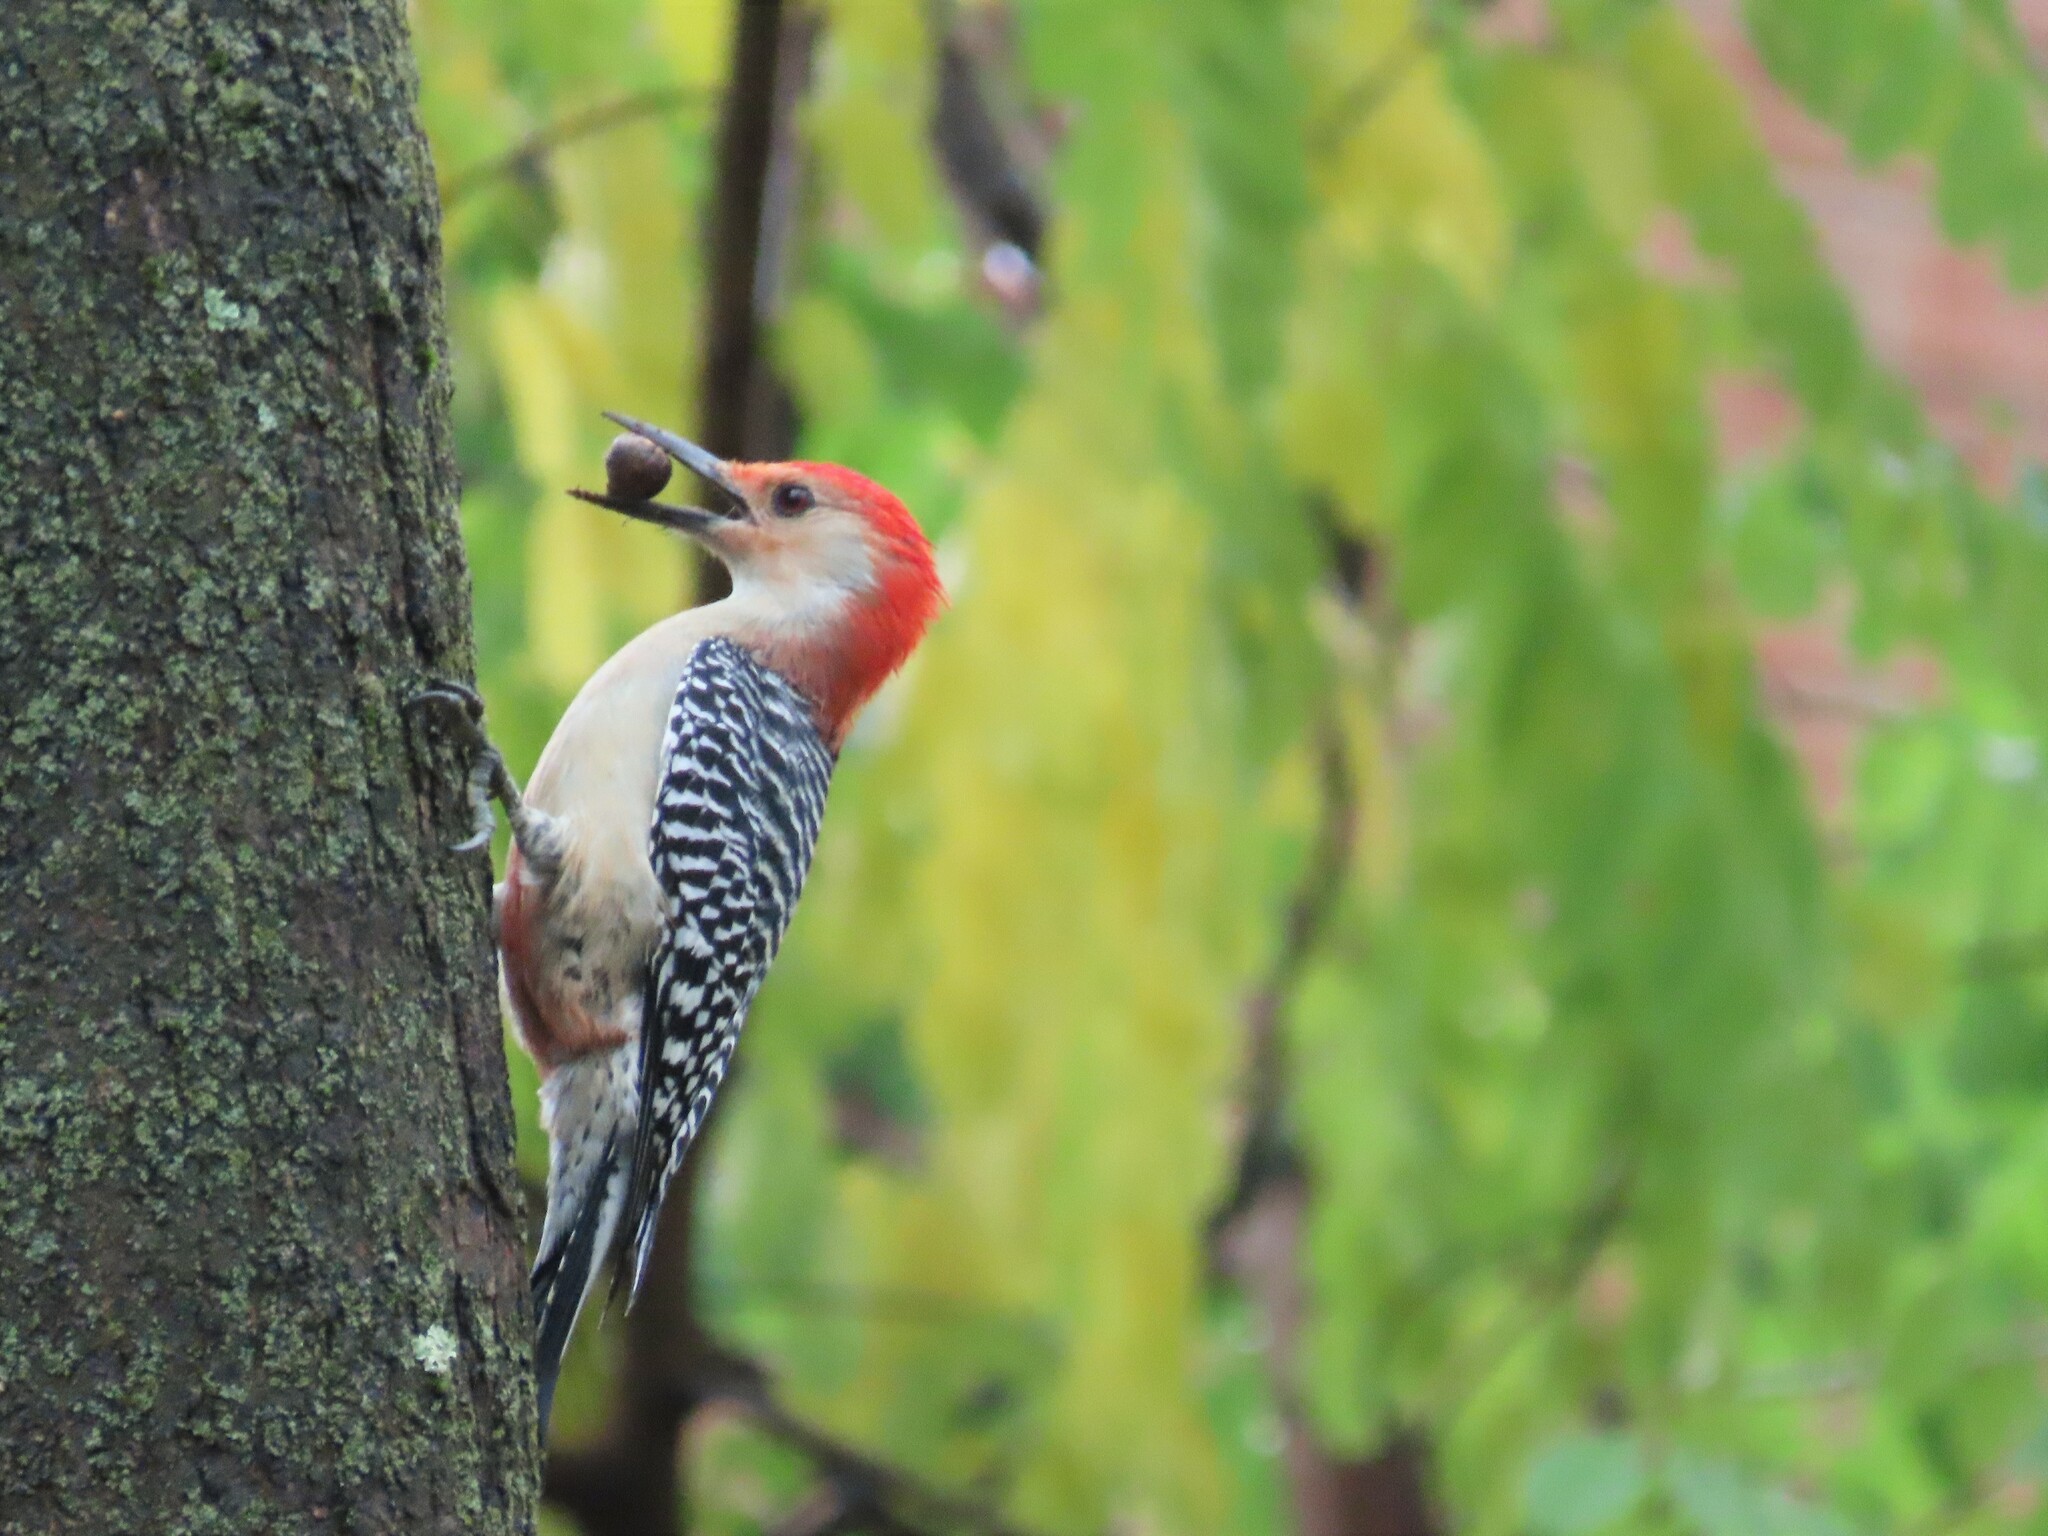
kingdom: Animalia
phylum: Chordata
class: Aves
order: Piciformes
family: Picidae
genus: Melanerpes
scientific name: Melanerpes carolinus
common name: Red-bellied woodpecker
